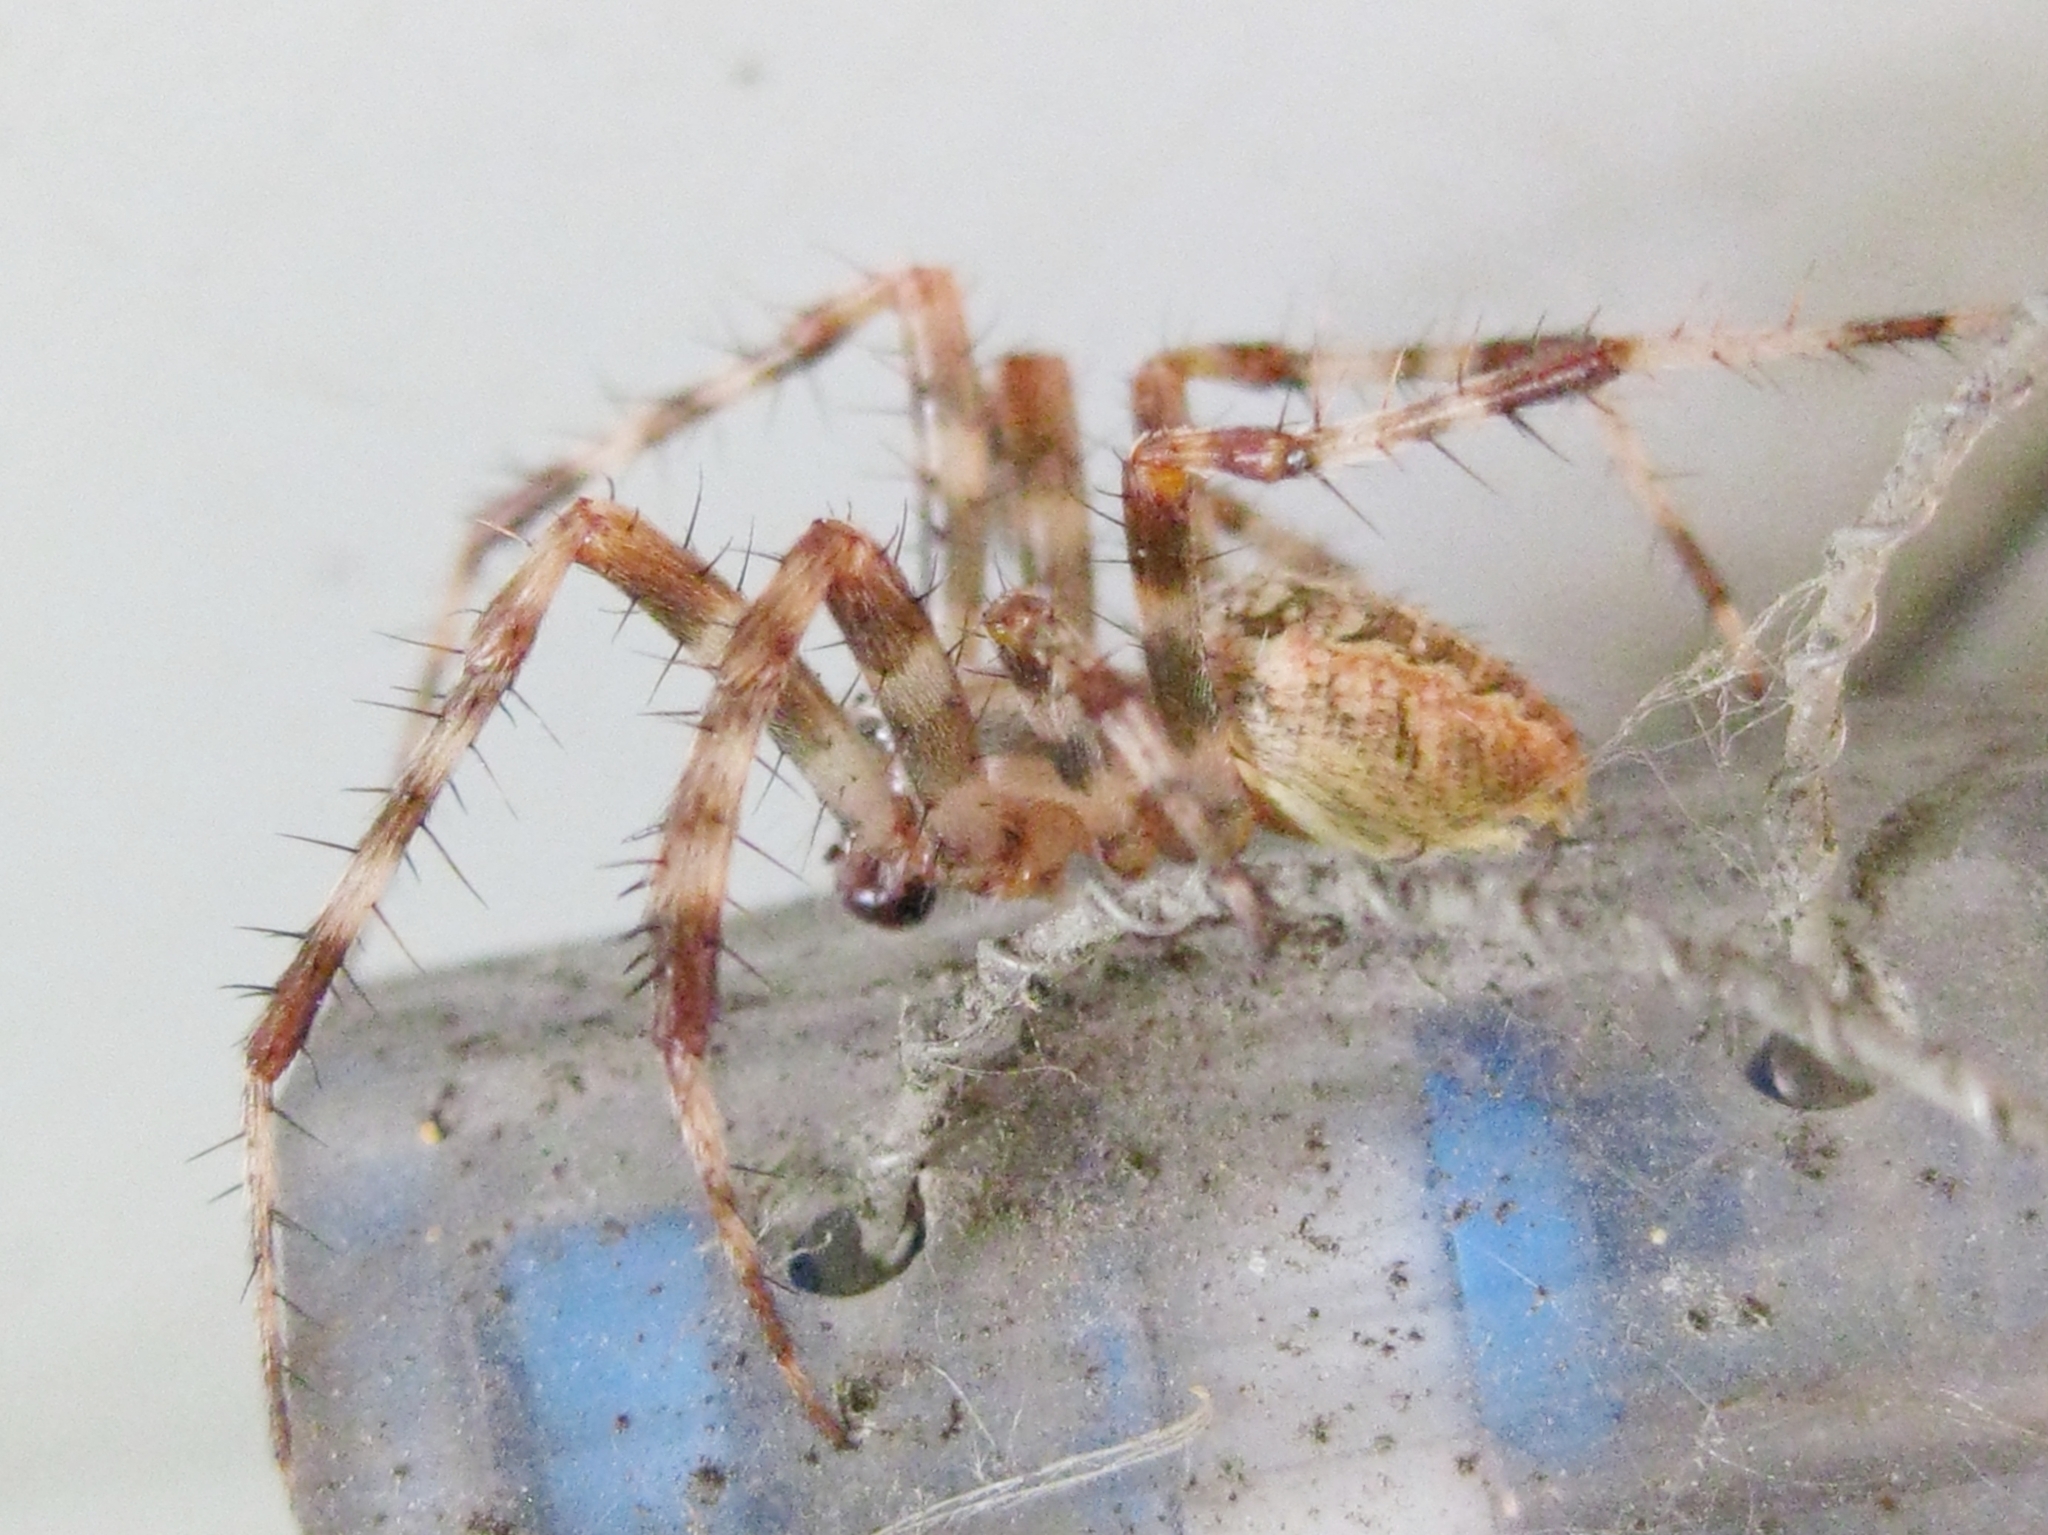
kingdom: Animalia
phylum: Arthropoda
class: Arachnida
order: Araneae
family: Araneidae
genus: Araneus
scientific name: Araneus diadematus
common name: Cross orbweaver
